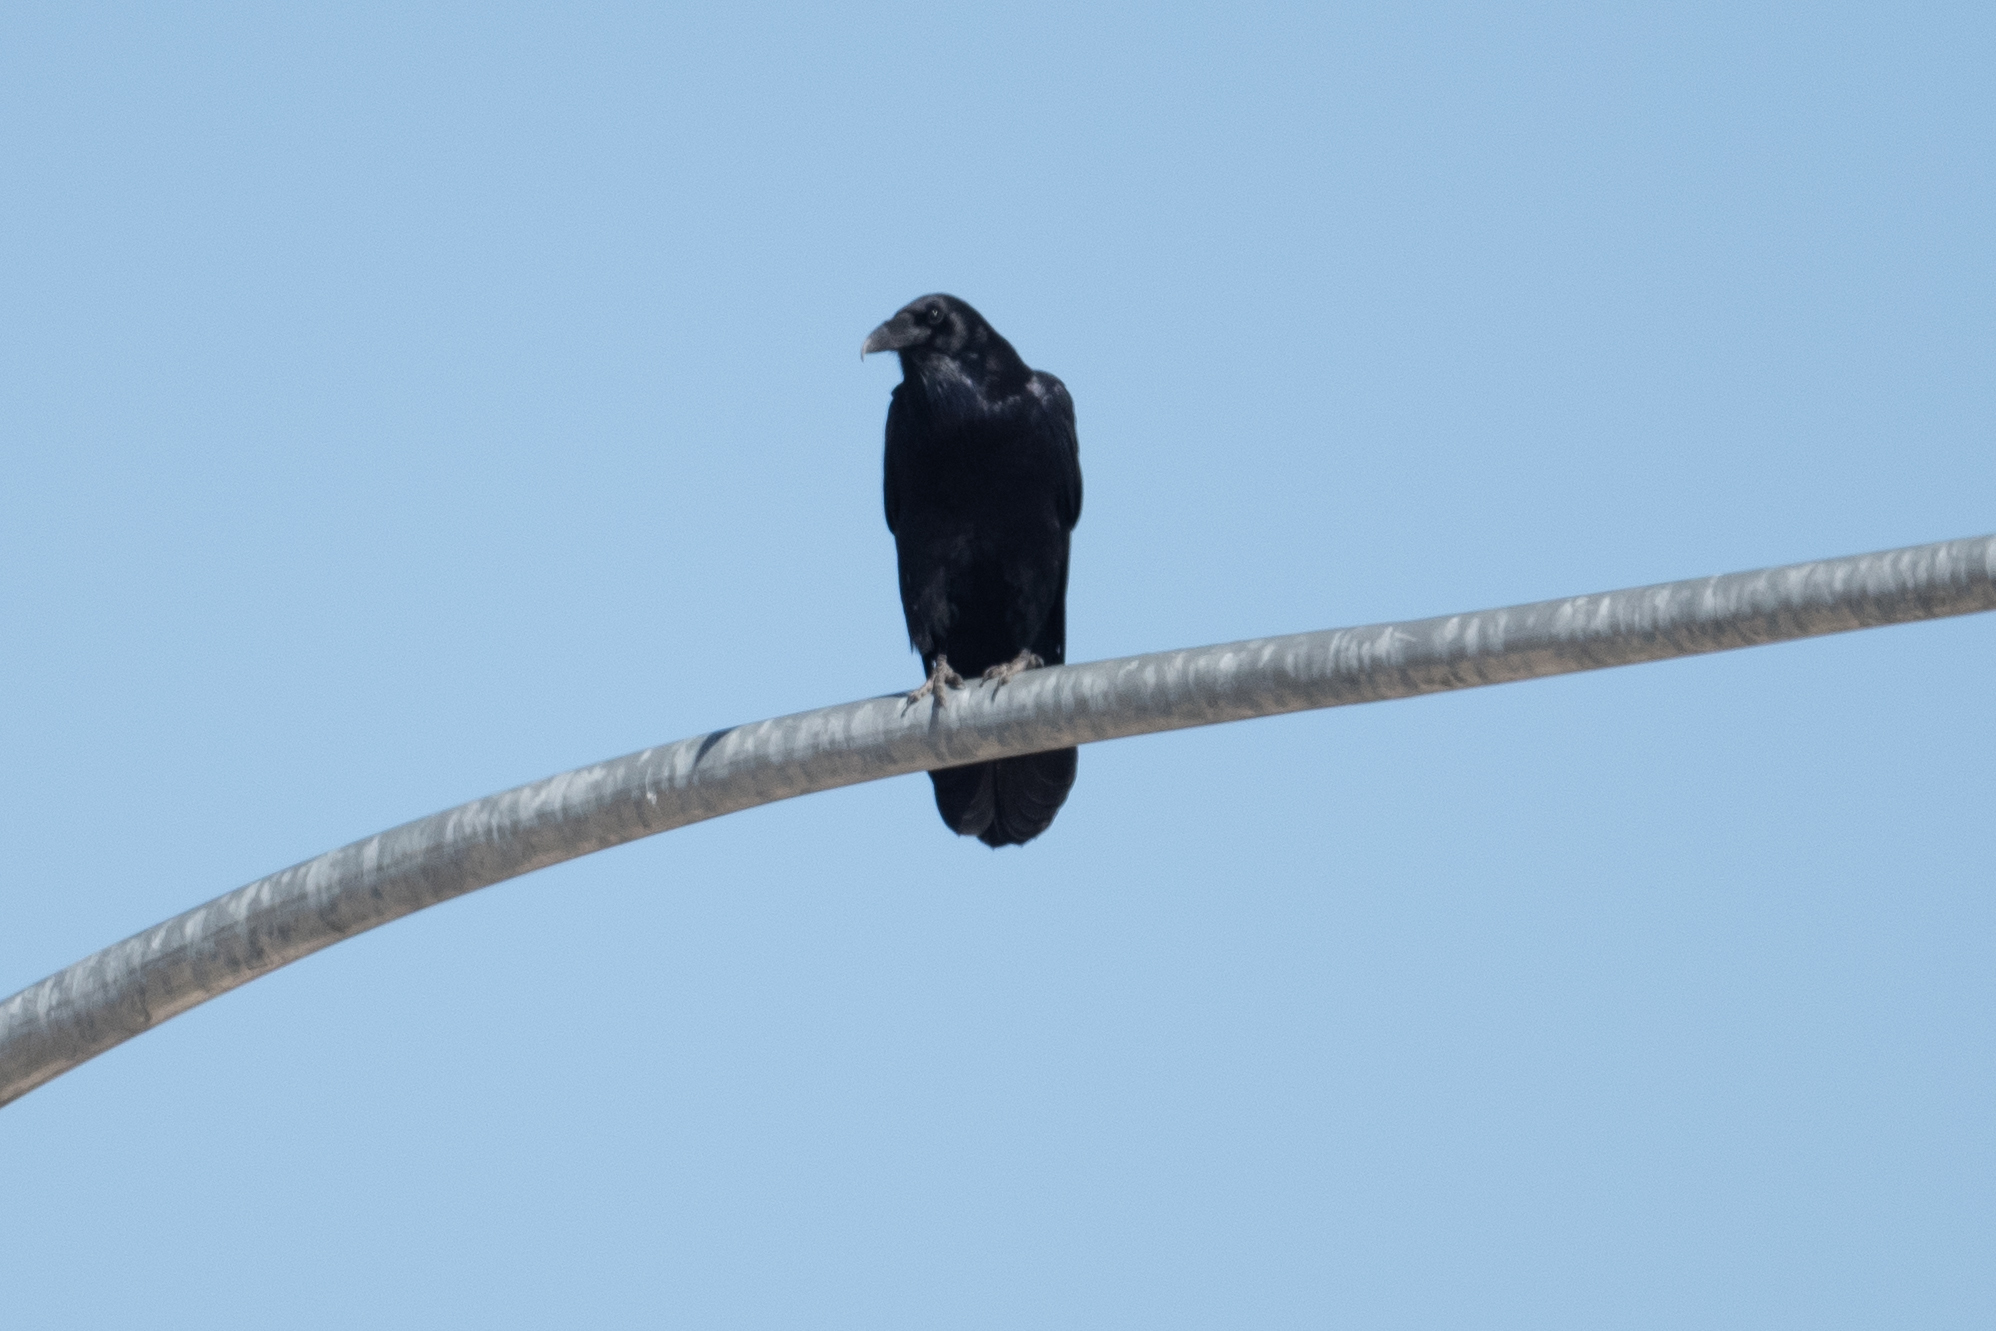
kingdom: Animalia
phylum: Chordata
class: Aves
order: Passeriformes
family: Corvidae
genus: Corvus
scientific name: Corvus corax
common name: Common raven
